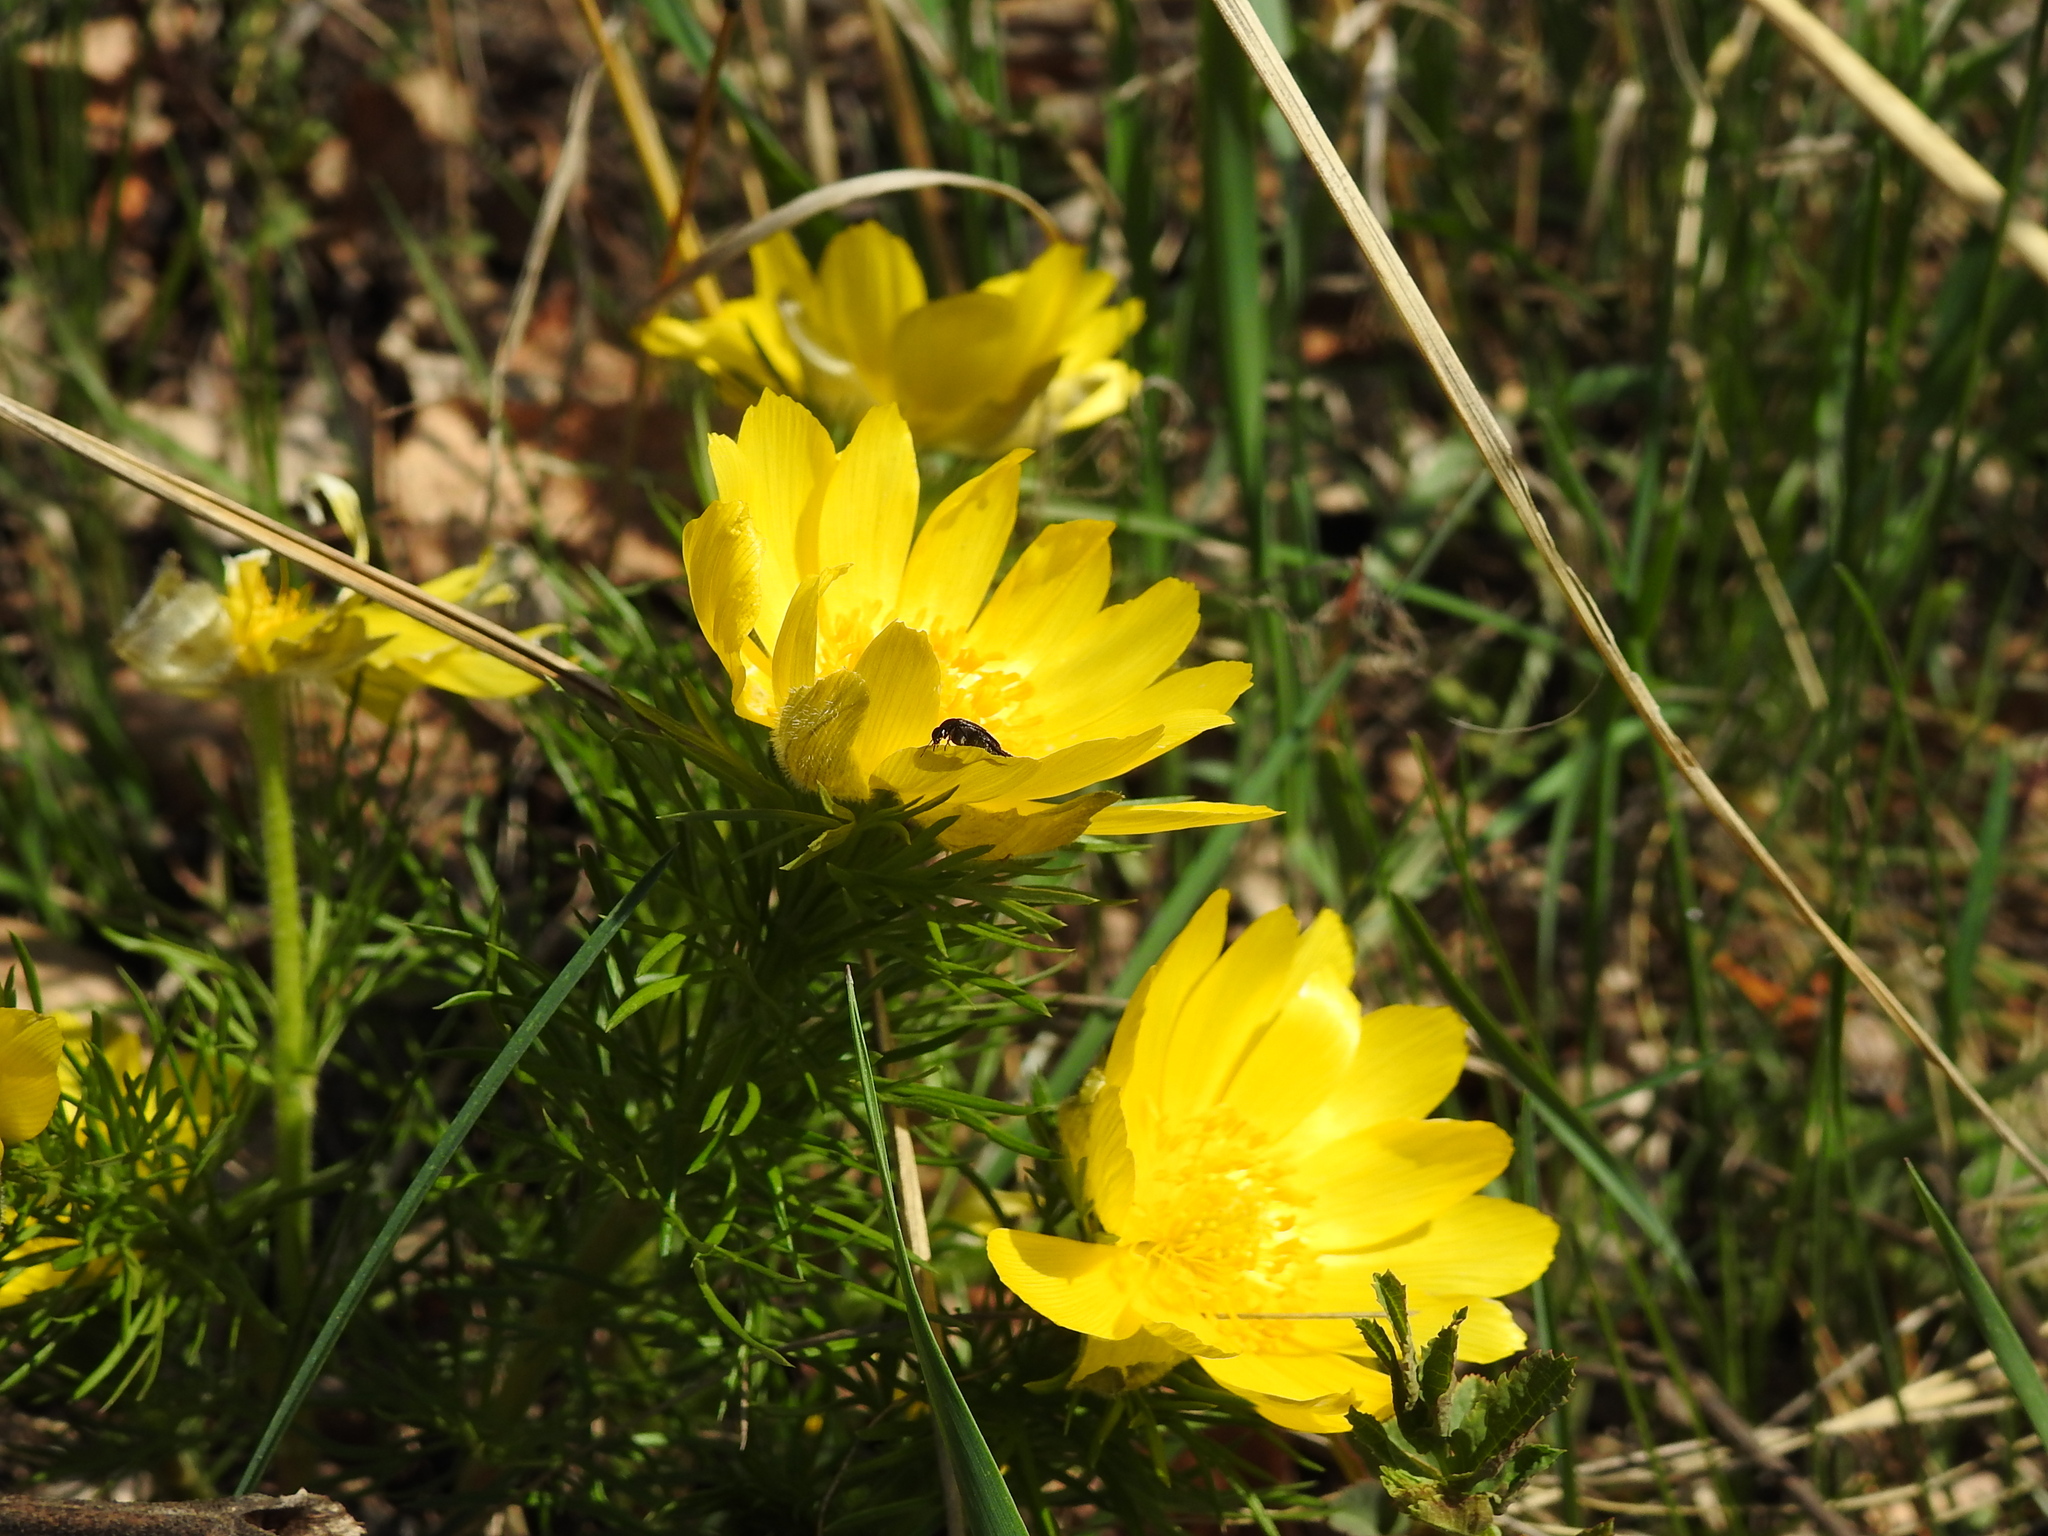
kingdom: Plantae
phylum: Tracheophyta
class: Magnoliopsida
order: Ranunculales
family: Ranunculaceae
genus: Adonis
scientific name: Adonis vernalis
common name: Yellow pheasants-eye
